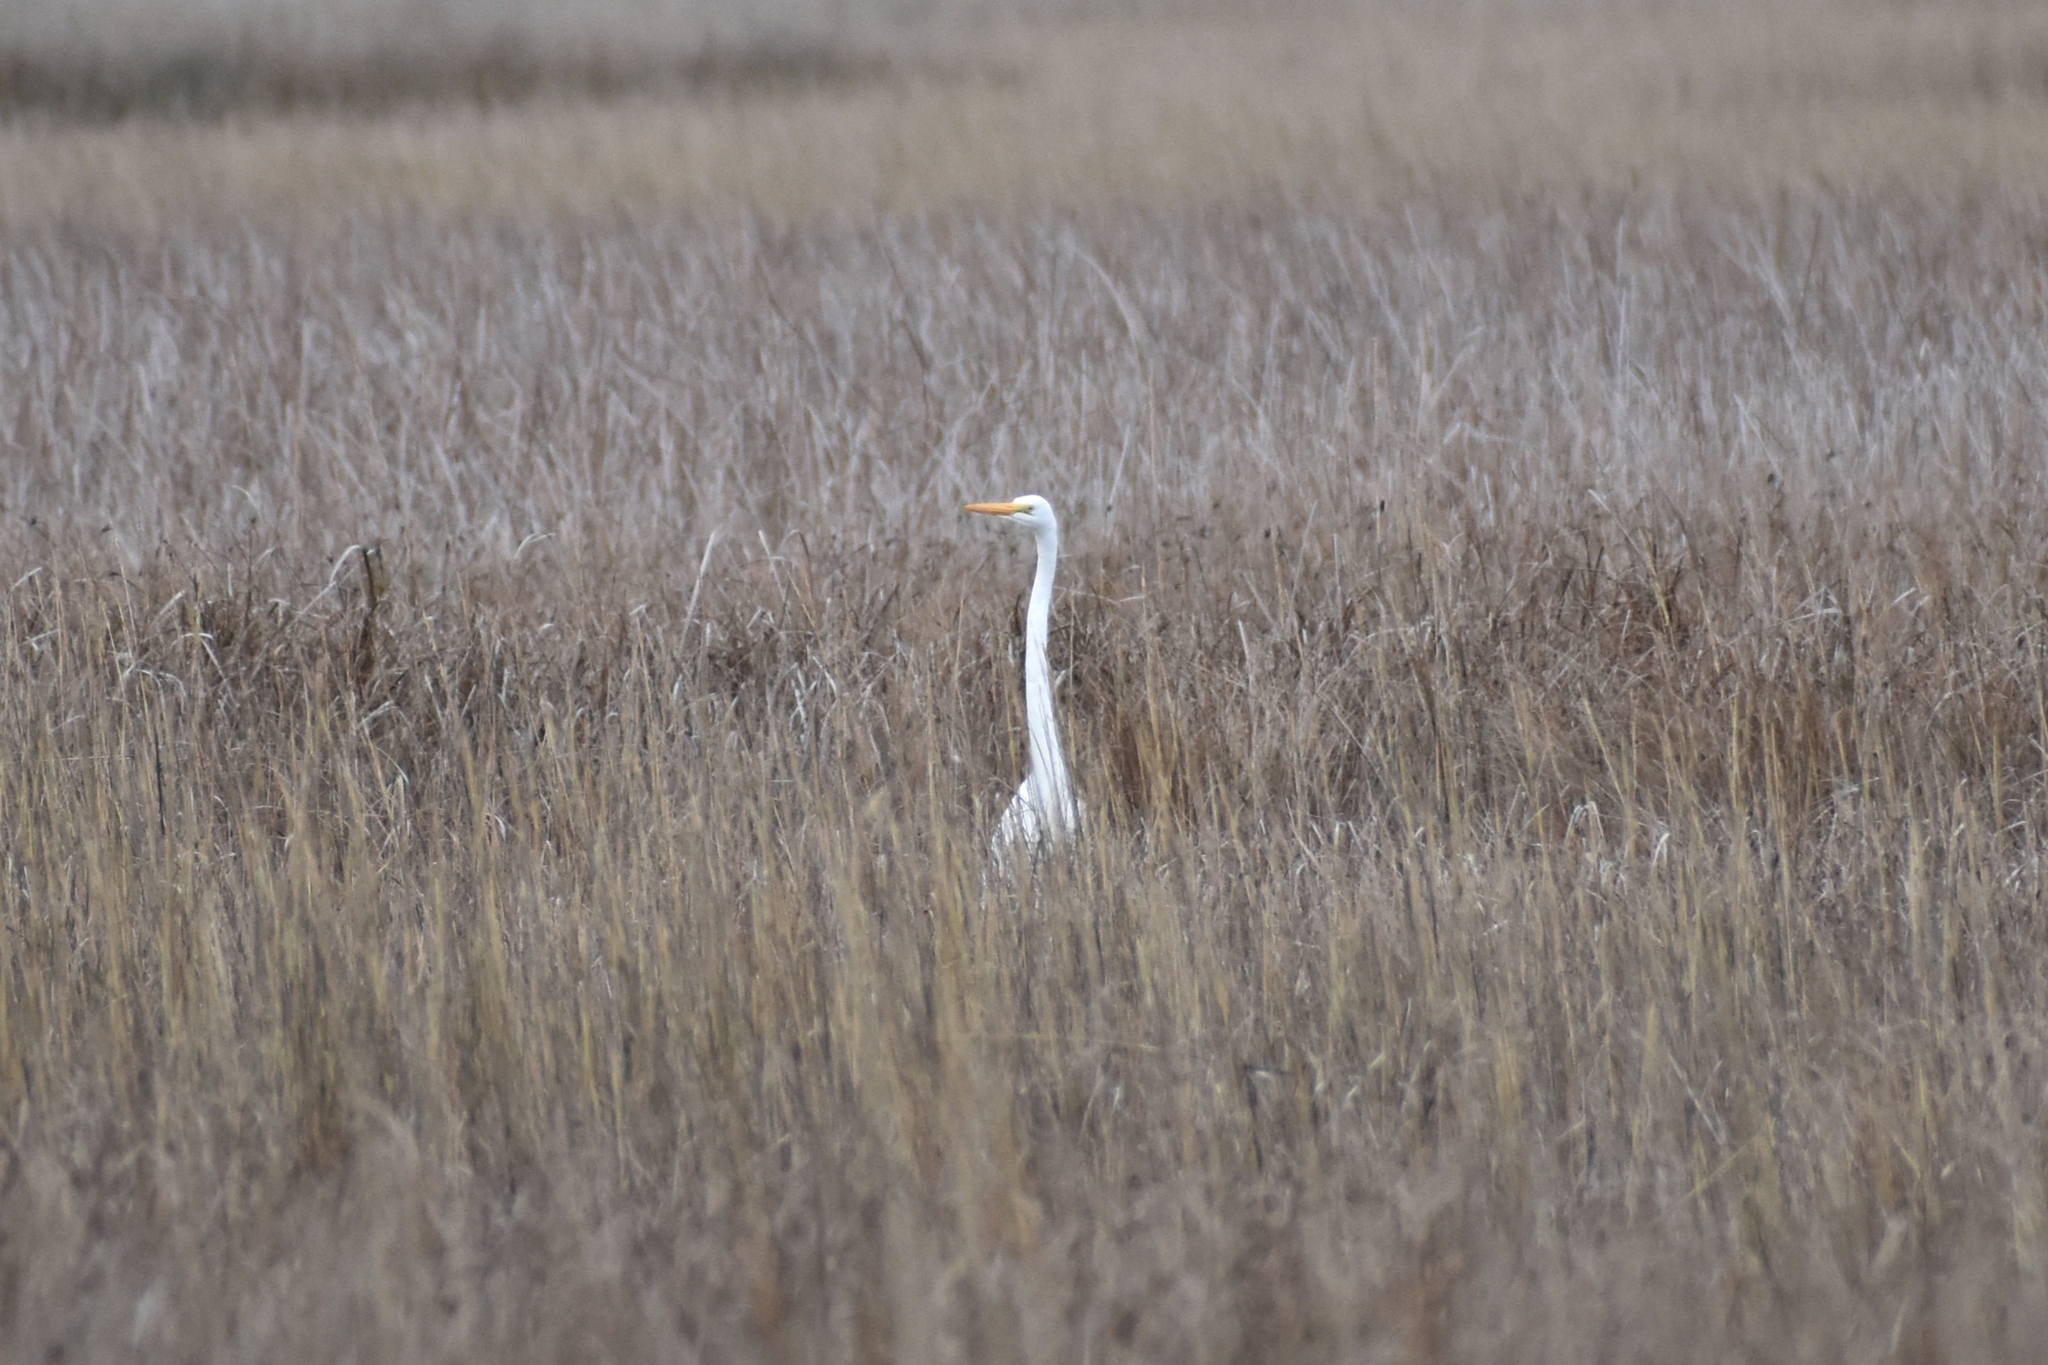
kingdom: Animalia
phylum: Chordata
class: Aves
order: Pelecaniformes
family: Ardeidae
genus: Ardea
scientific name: Ardea alba
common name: Great egret
